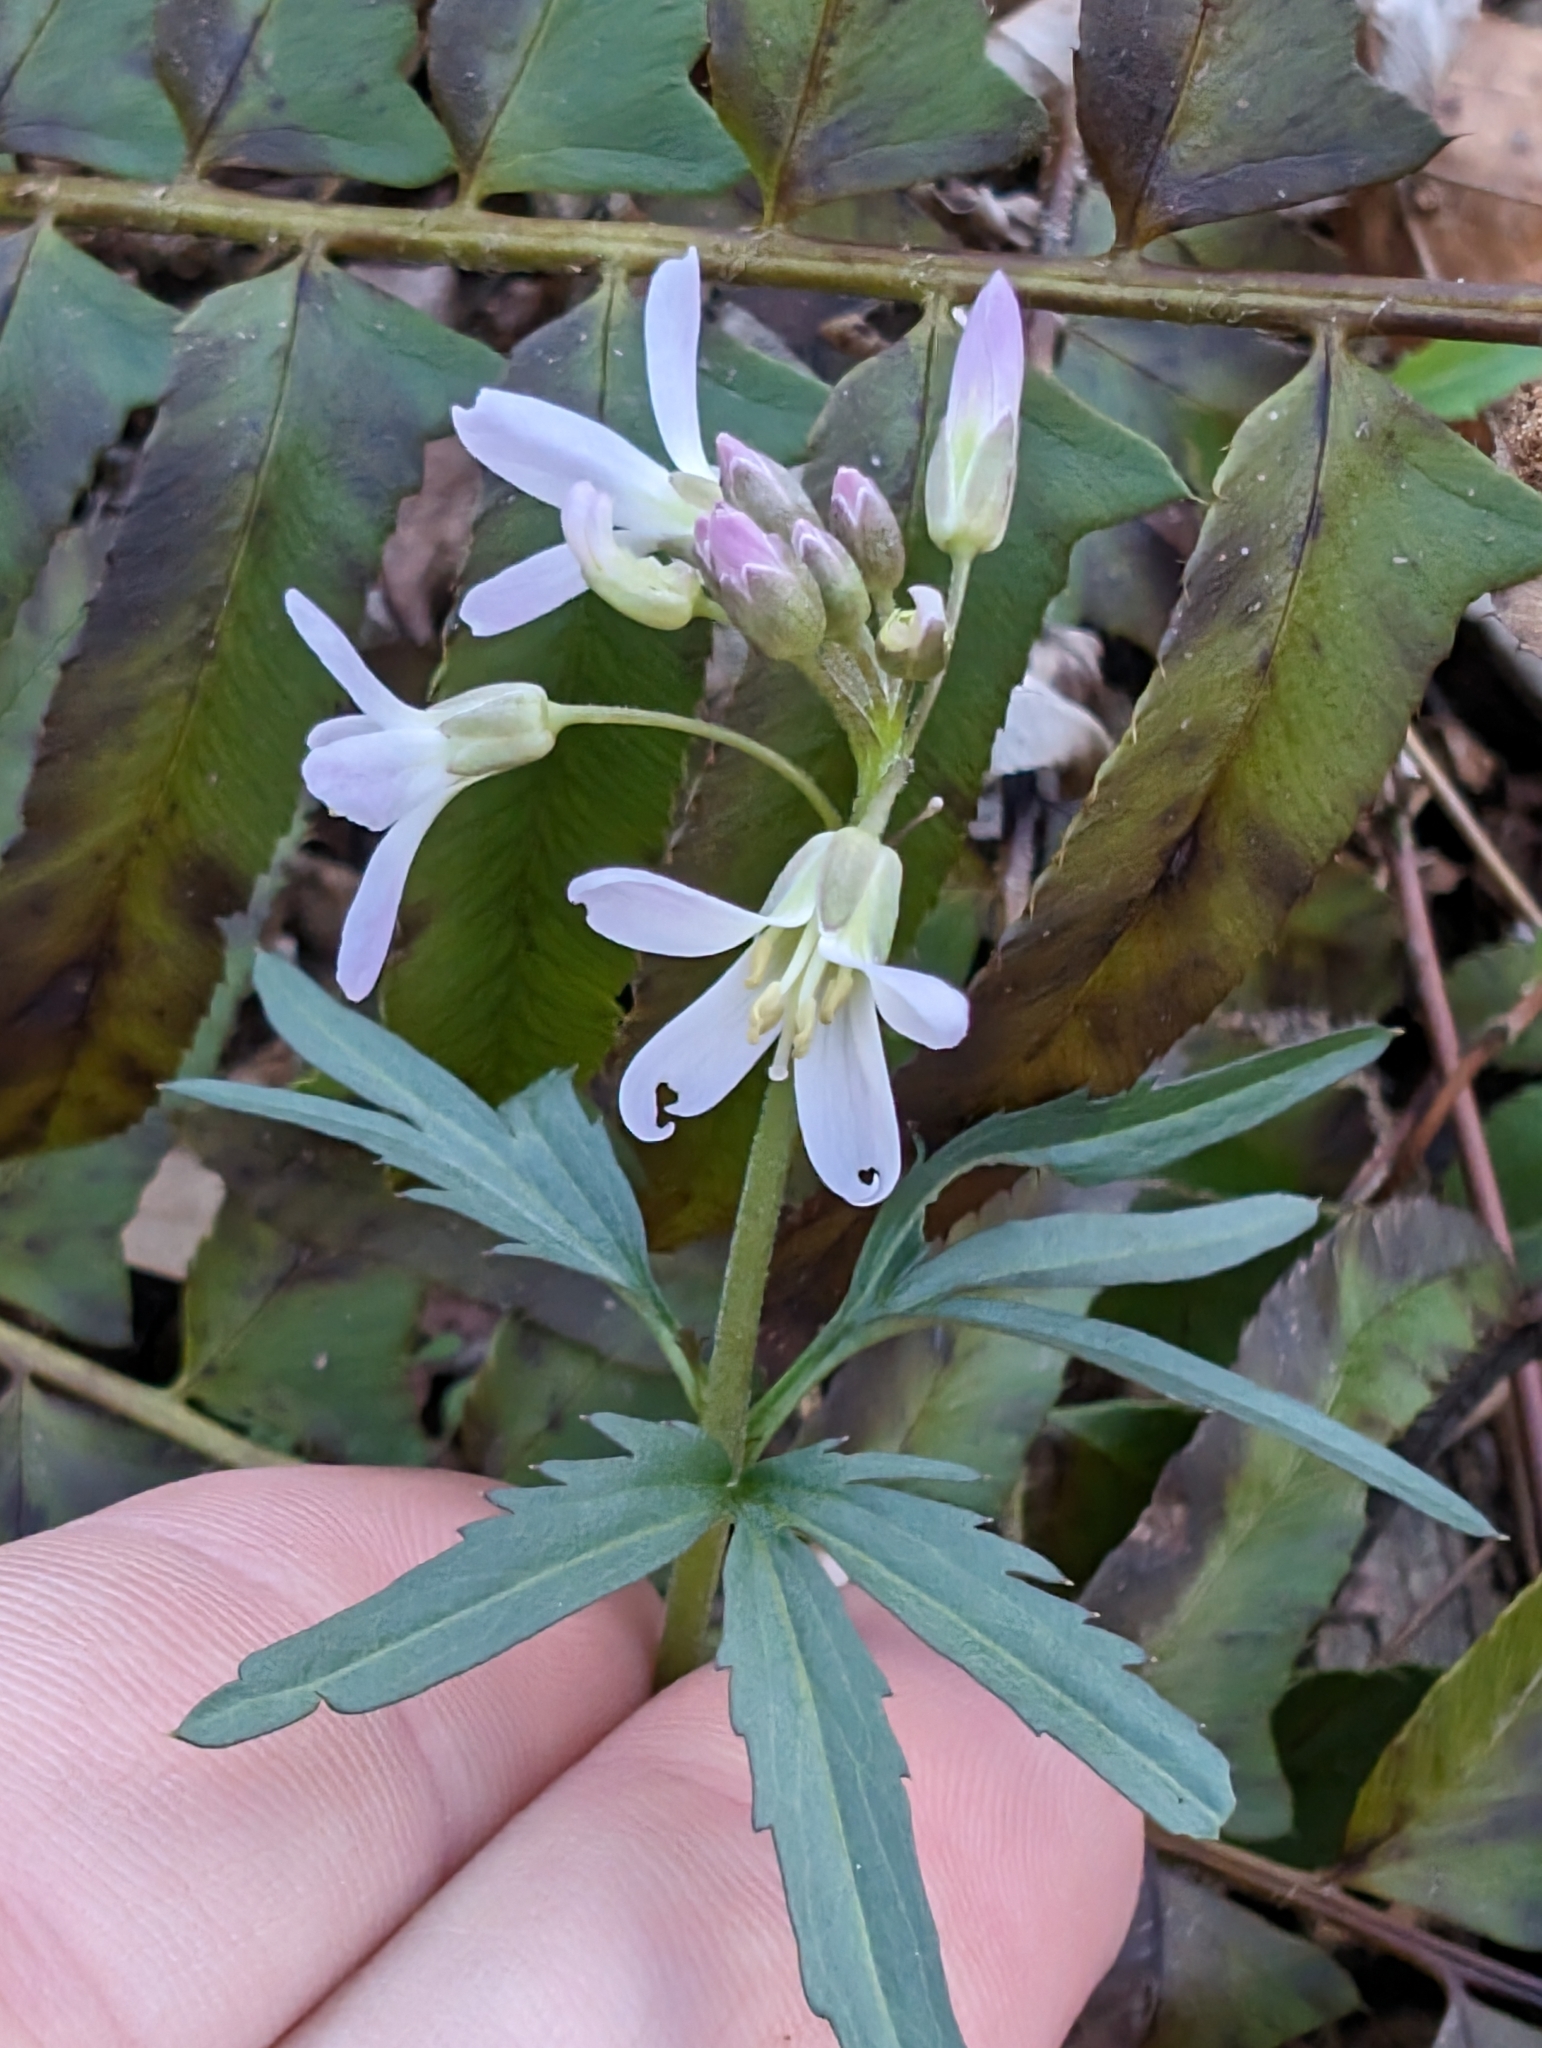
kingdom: Plantae
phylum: Tracheophyta
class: Magnoliopsida
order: Brassicales
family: Brassicaceae
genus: Cardamine
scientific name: Cardamine concatenata
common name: Cut-leaf toothcup
